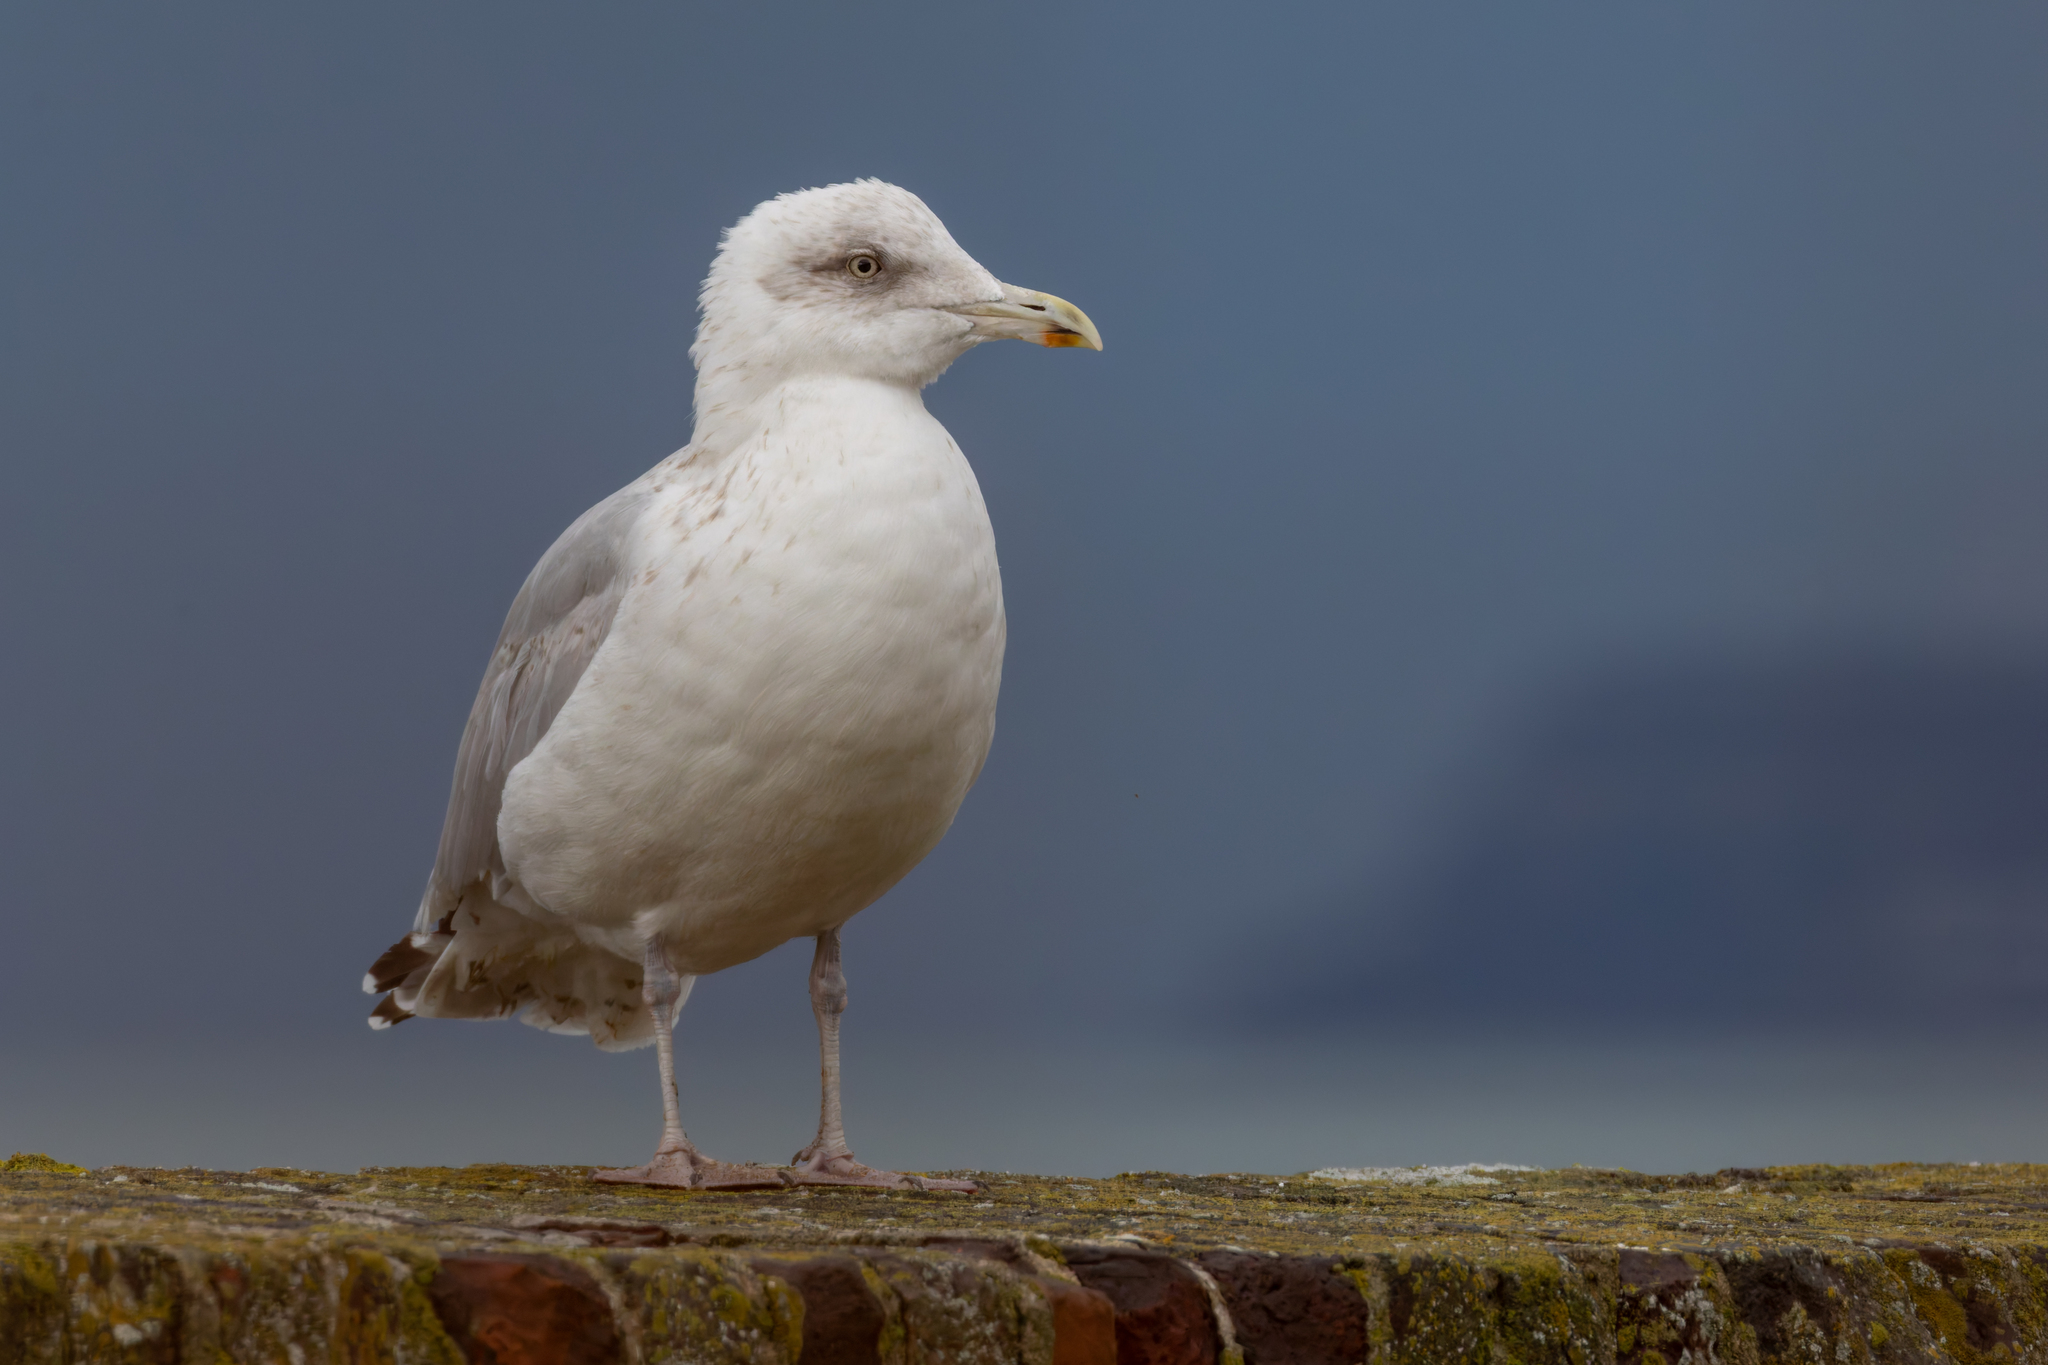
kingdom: Animalia
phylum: Chordata
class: Aves
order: Charadriiformes
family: Laridae
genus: Larus
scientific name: Larus argentatus
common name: Herring gull
